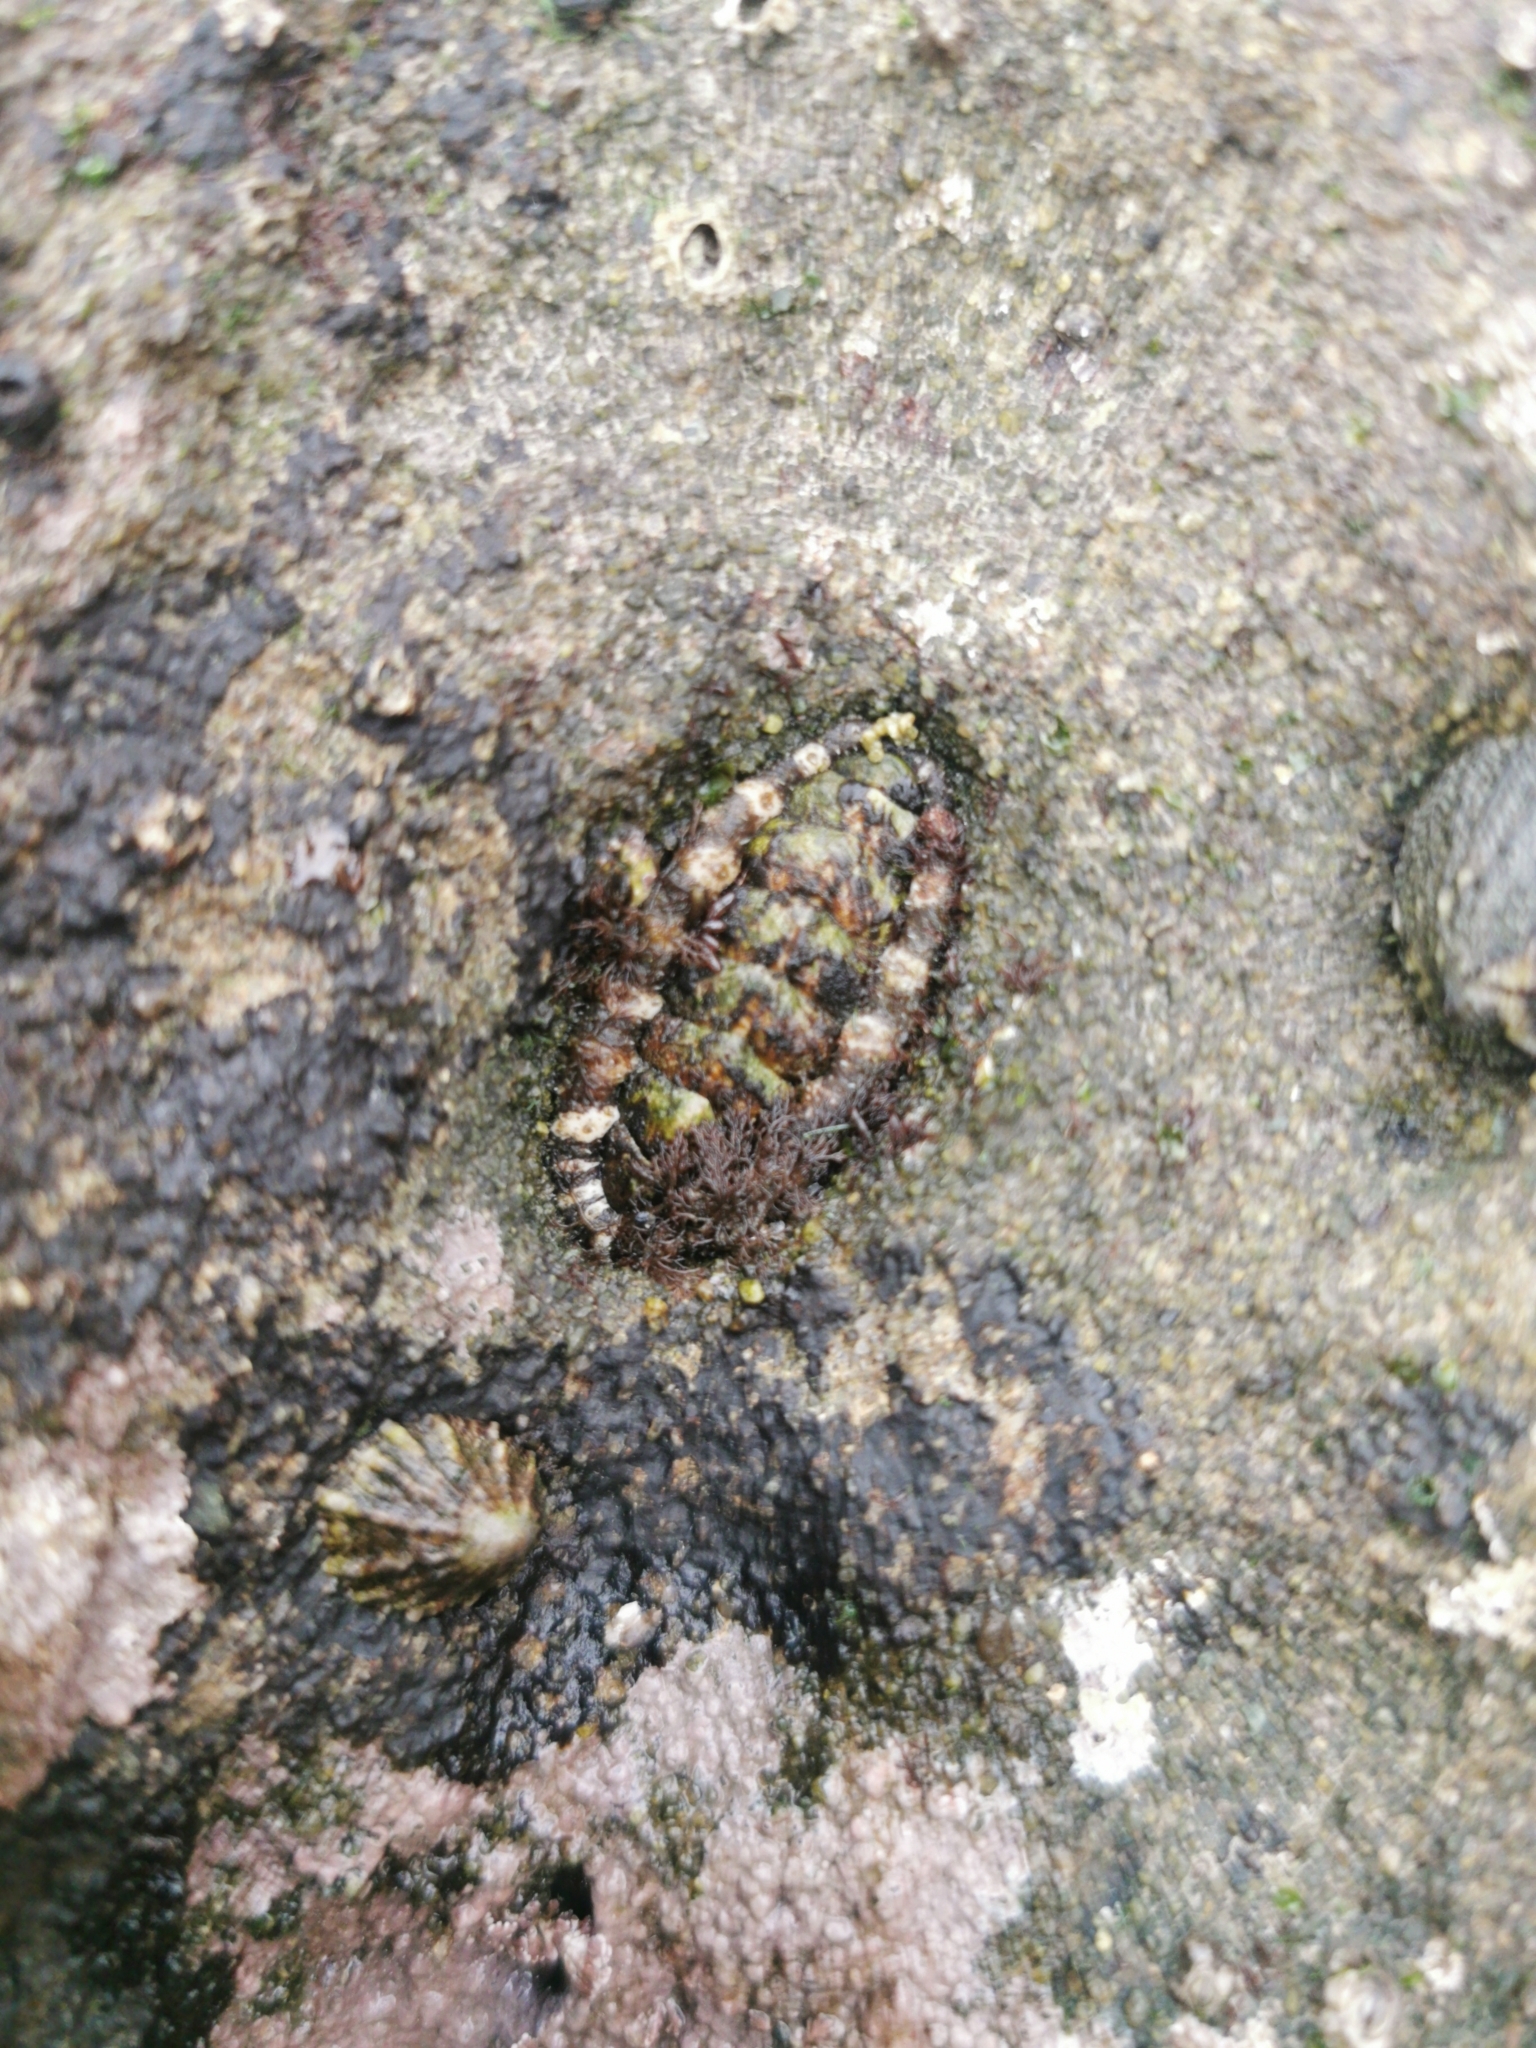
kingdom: Animalia
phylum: Mollusca
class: Polyplacophora
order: Chitonida
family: Tonicellidae
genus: Nuttallina
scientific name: Nuttallina californica
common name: California nuttall chiton
